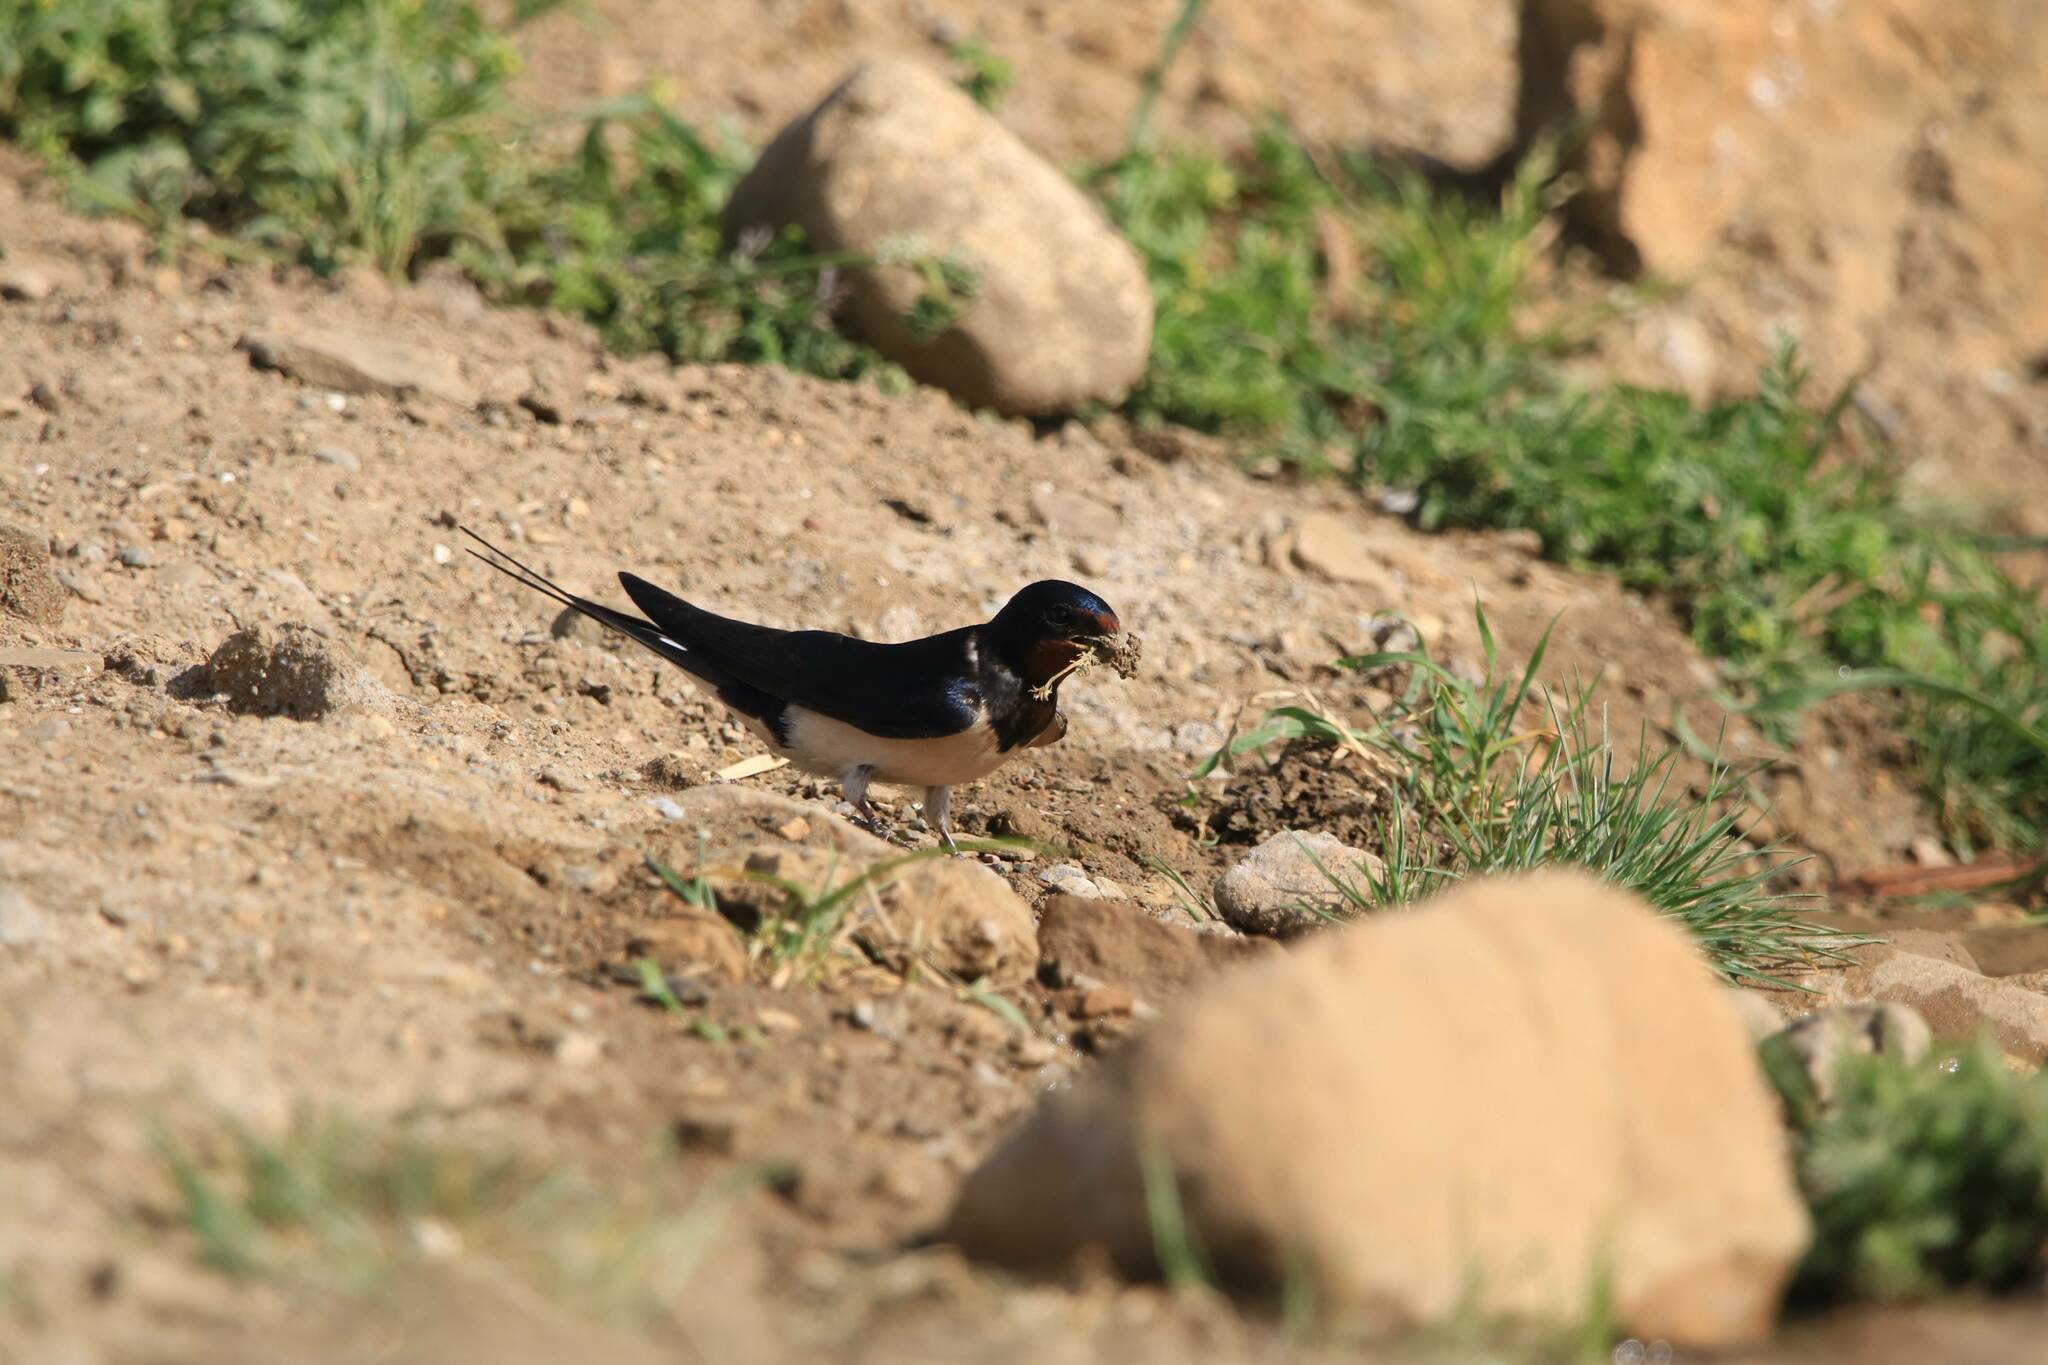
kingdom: Animalia
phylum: Chordata
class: Aves
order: Passeriformes
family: Hirundinidae
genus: Hirundo
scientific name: Hirundo rustica
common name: Barn swallow
